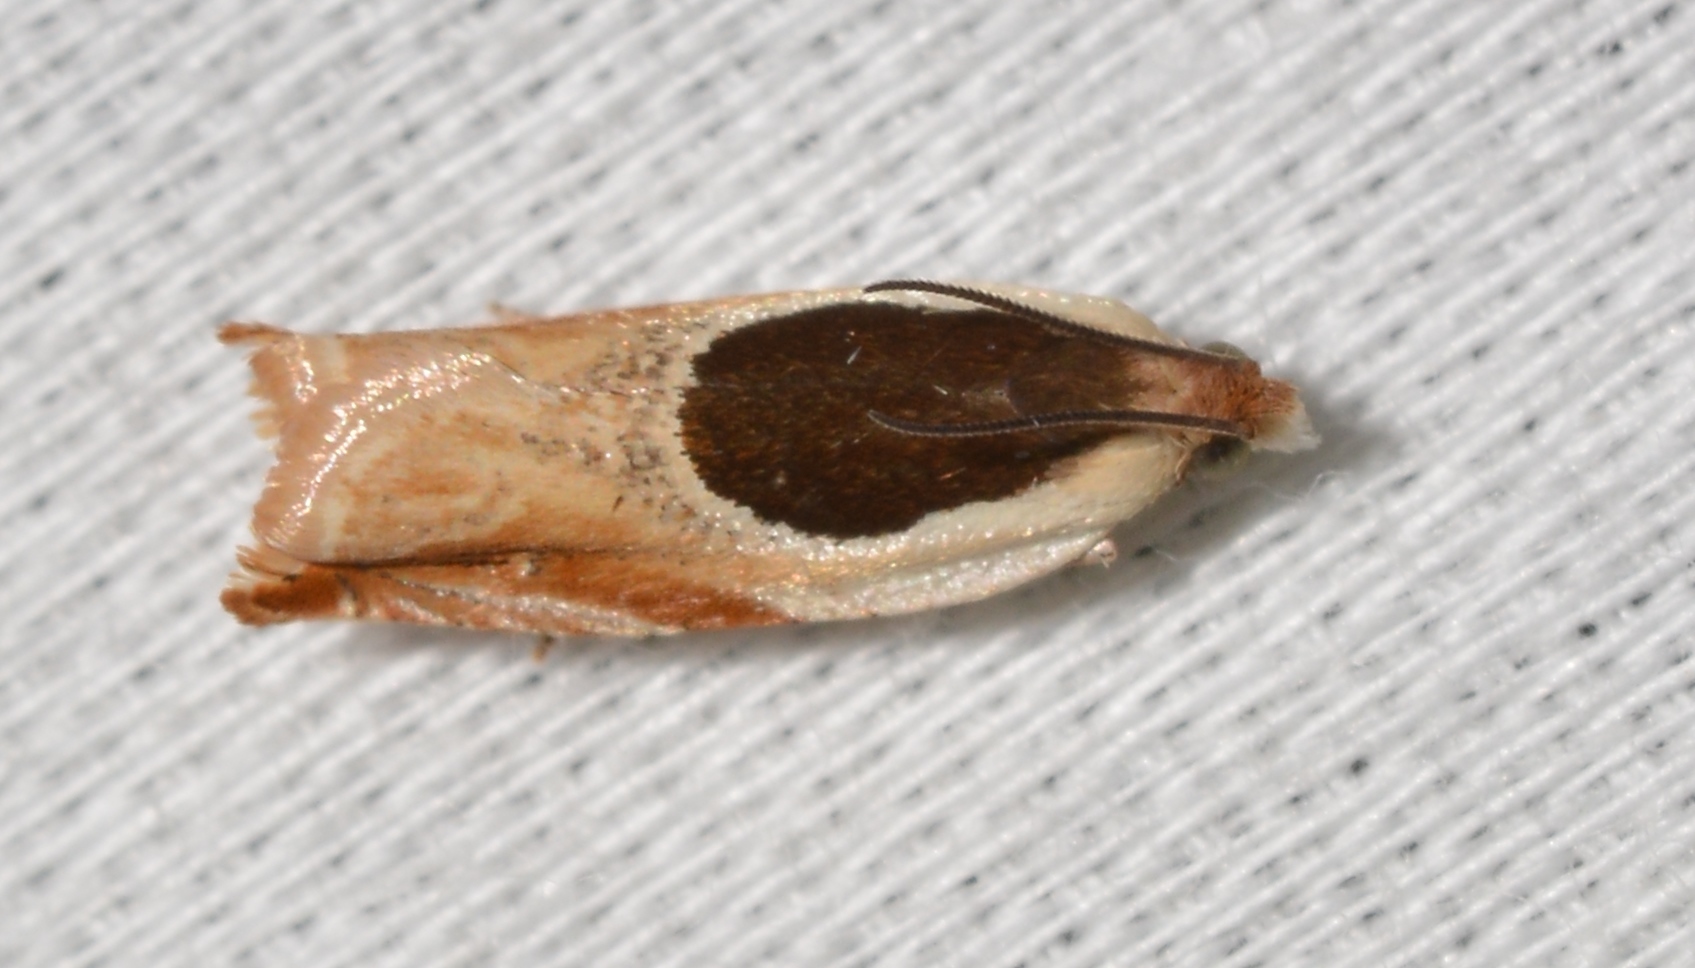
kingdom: Animalia
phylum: Arthropoda
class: Insecta
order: Lepidoptera
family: Tortricidae
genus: Ancylis
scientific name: Ancylis burgessiana
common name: Oak leaffolder moth
